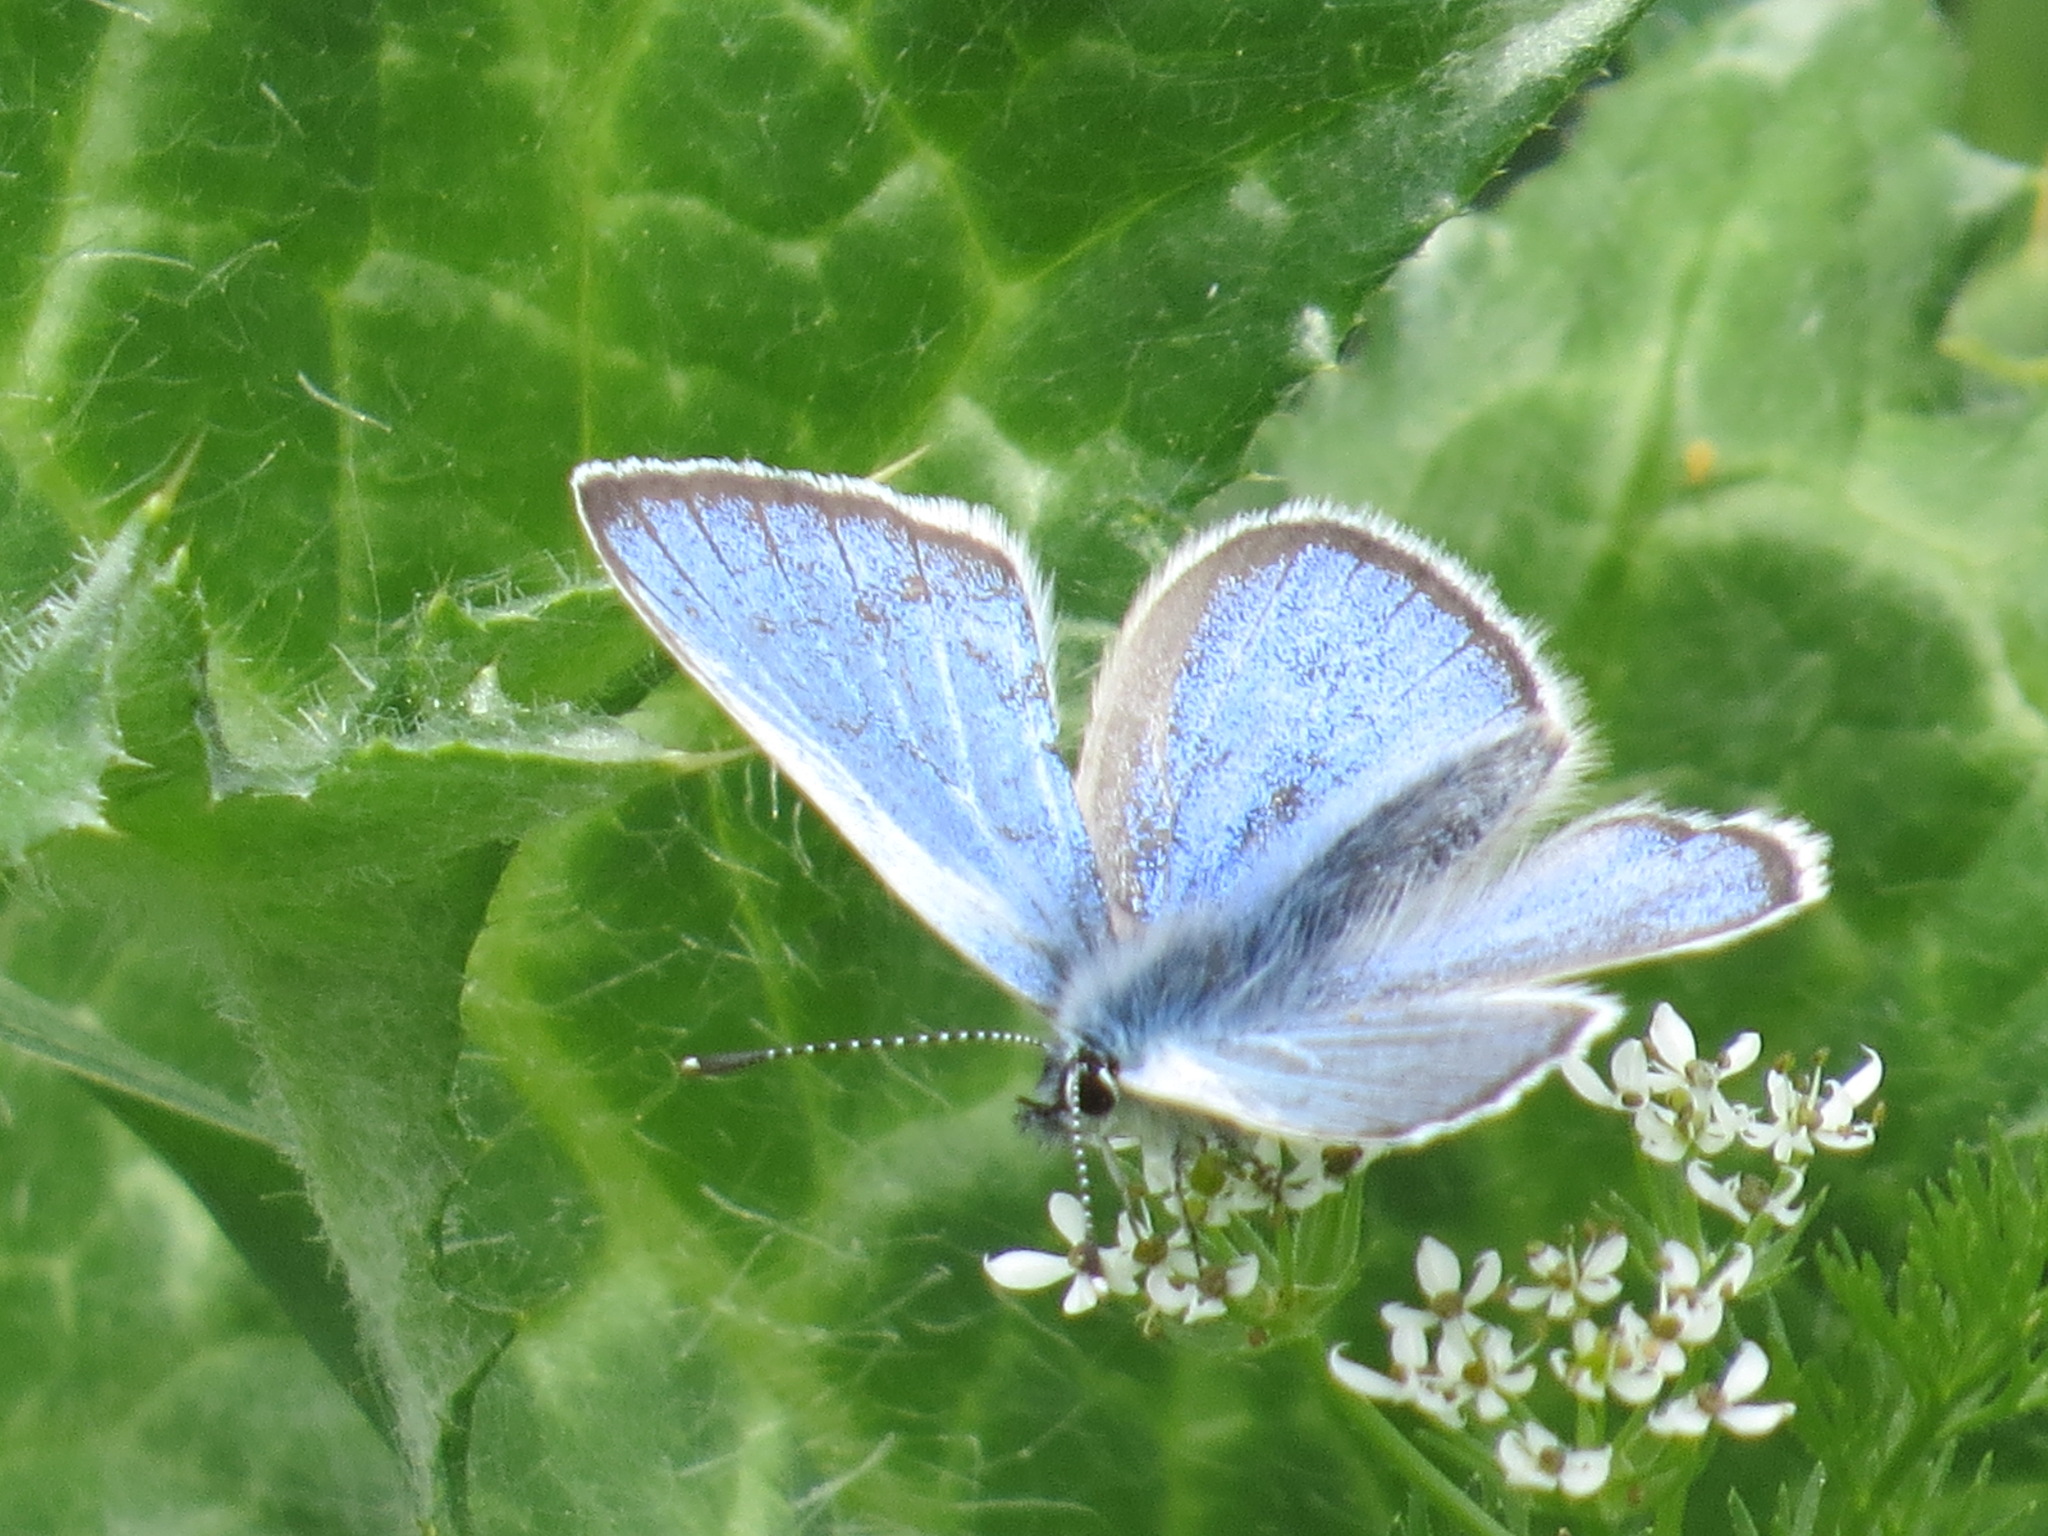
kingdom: Animalia
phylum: Arthropoda
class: Insecta
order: Lepidoptera
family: Lycaenidae
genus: Glaucopsyche
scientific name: Glaucopsyche lygdamus
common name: Silvery blue
